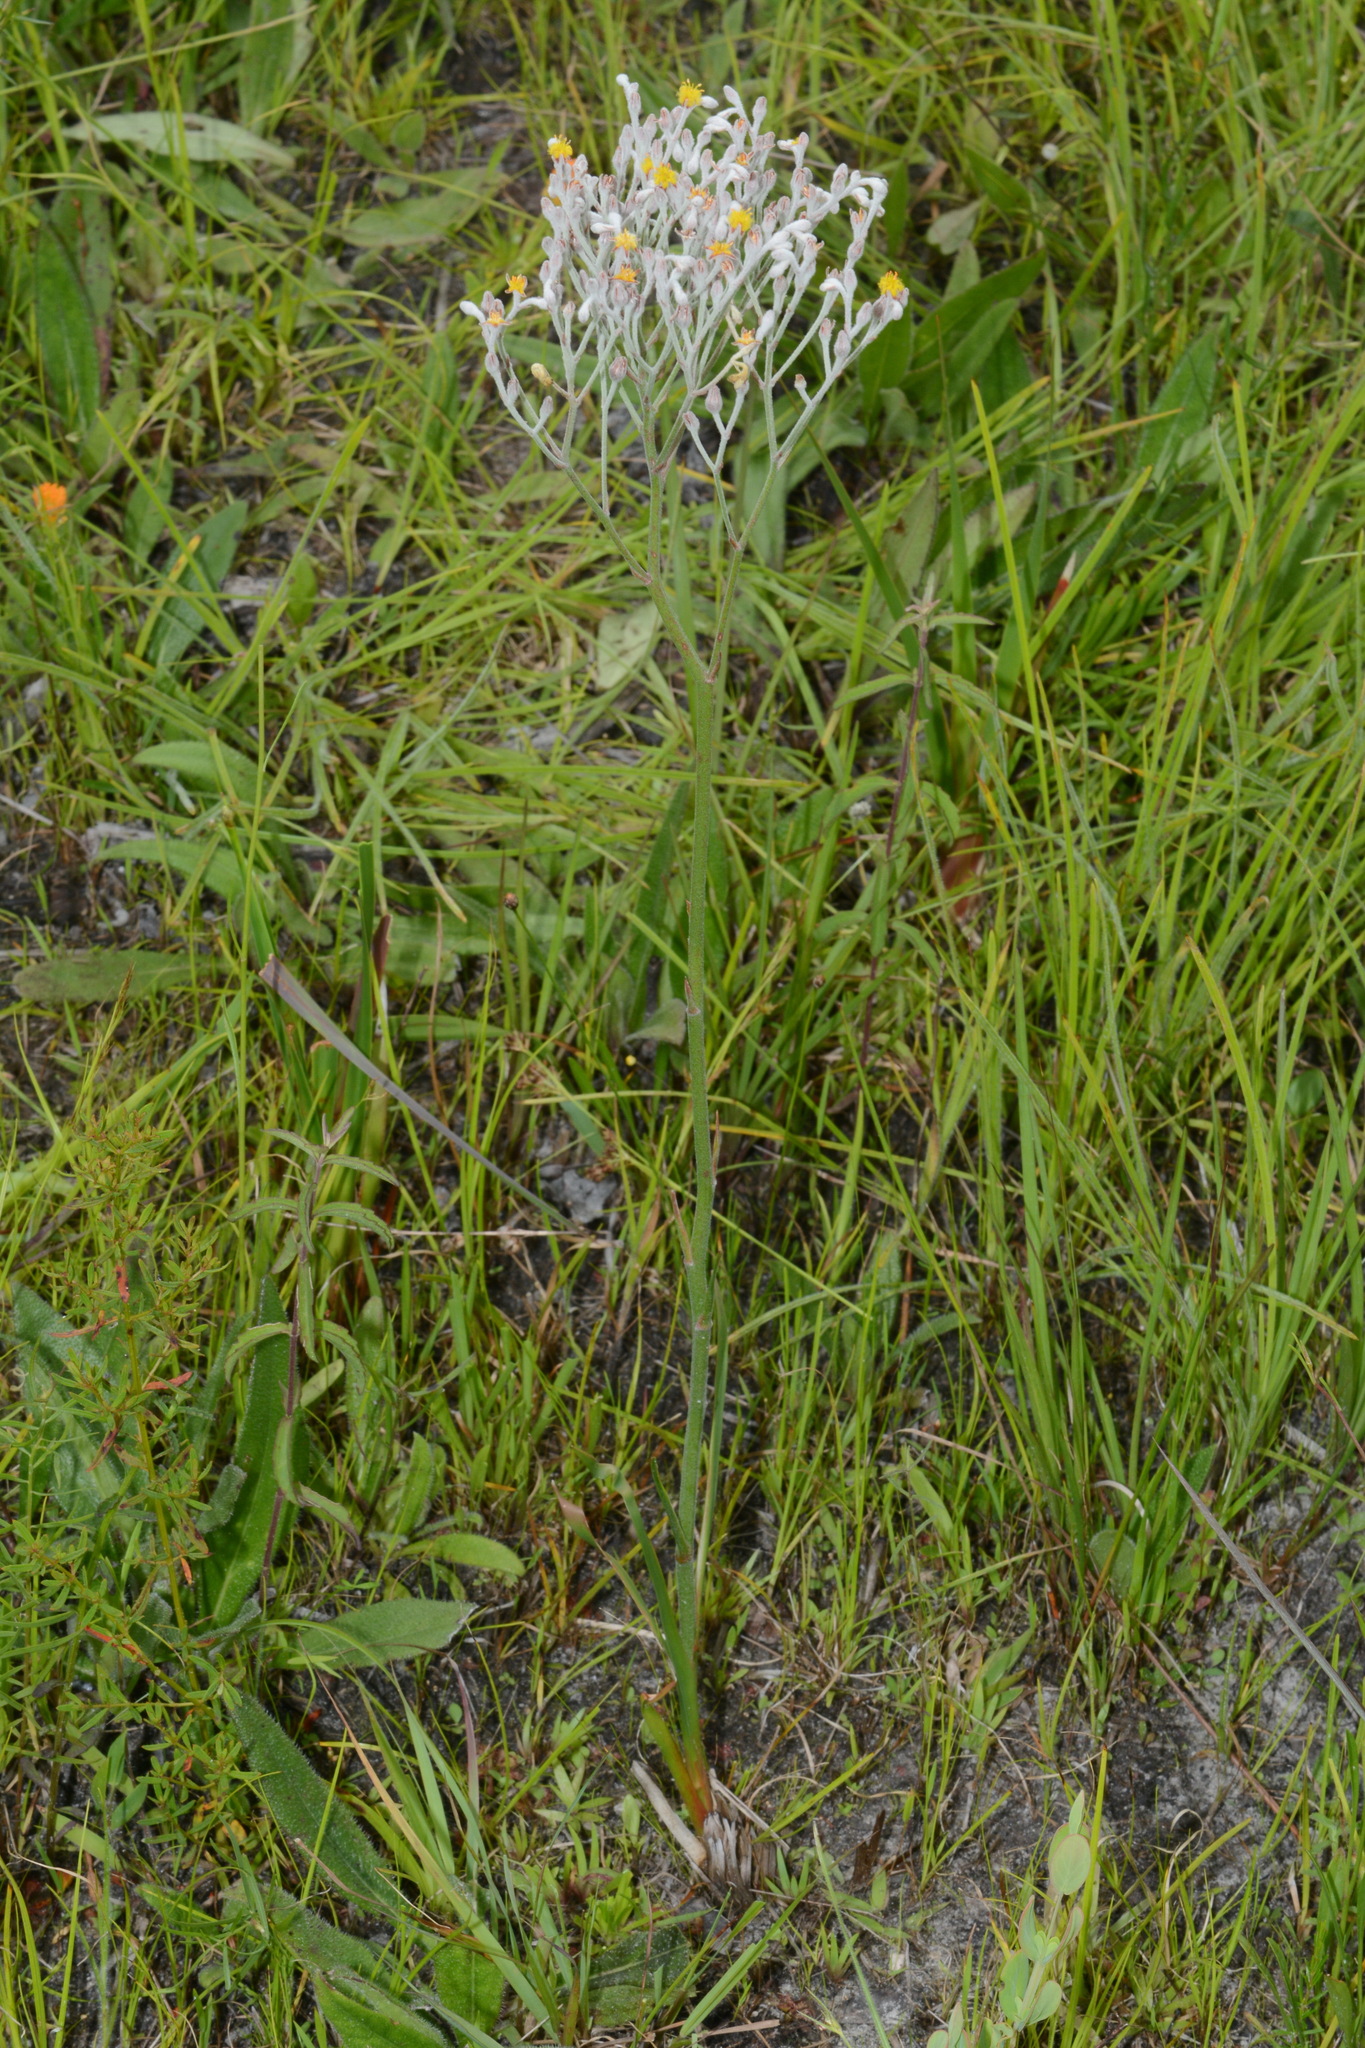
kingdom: Plantae
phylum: Tracheophyta
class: Liliopsida
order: Dioscoreales
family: Nartheciaceae
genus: Lophiola
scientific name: Lophiola aurea
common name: Golden-crest
